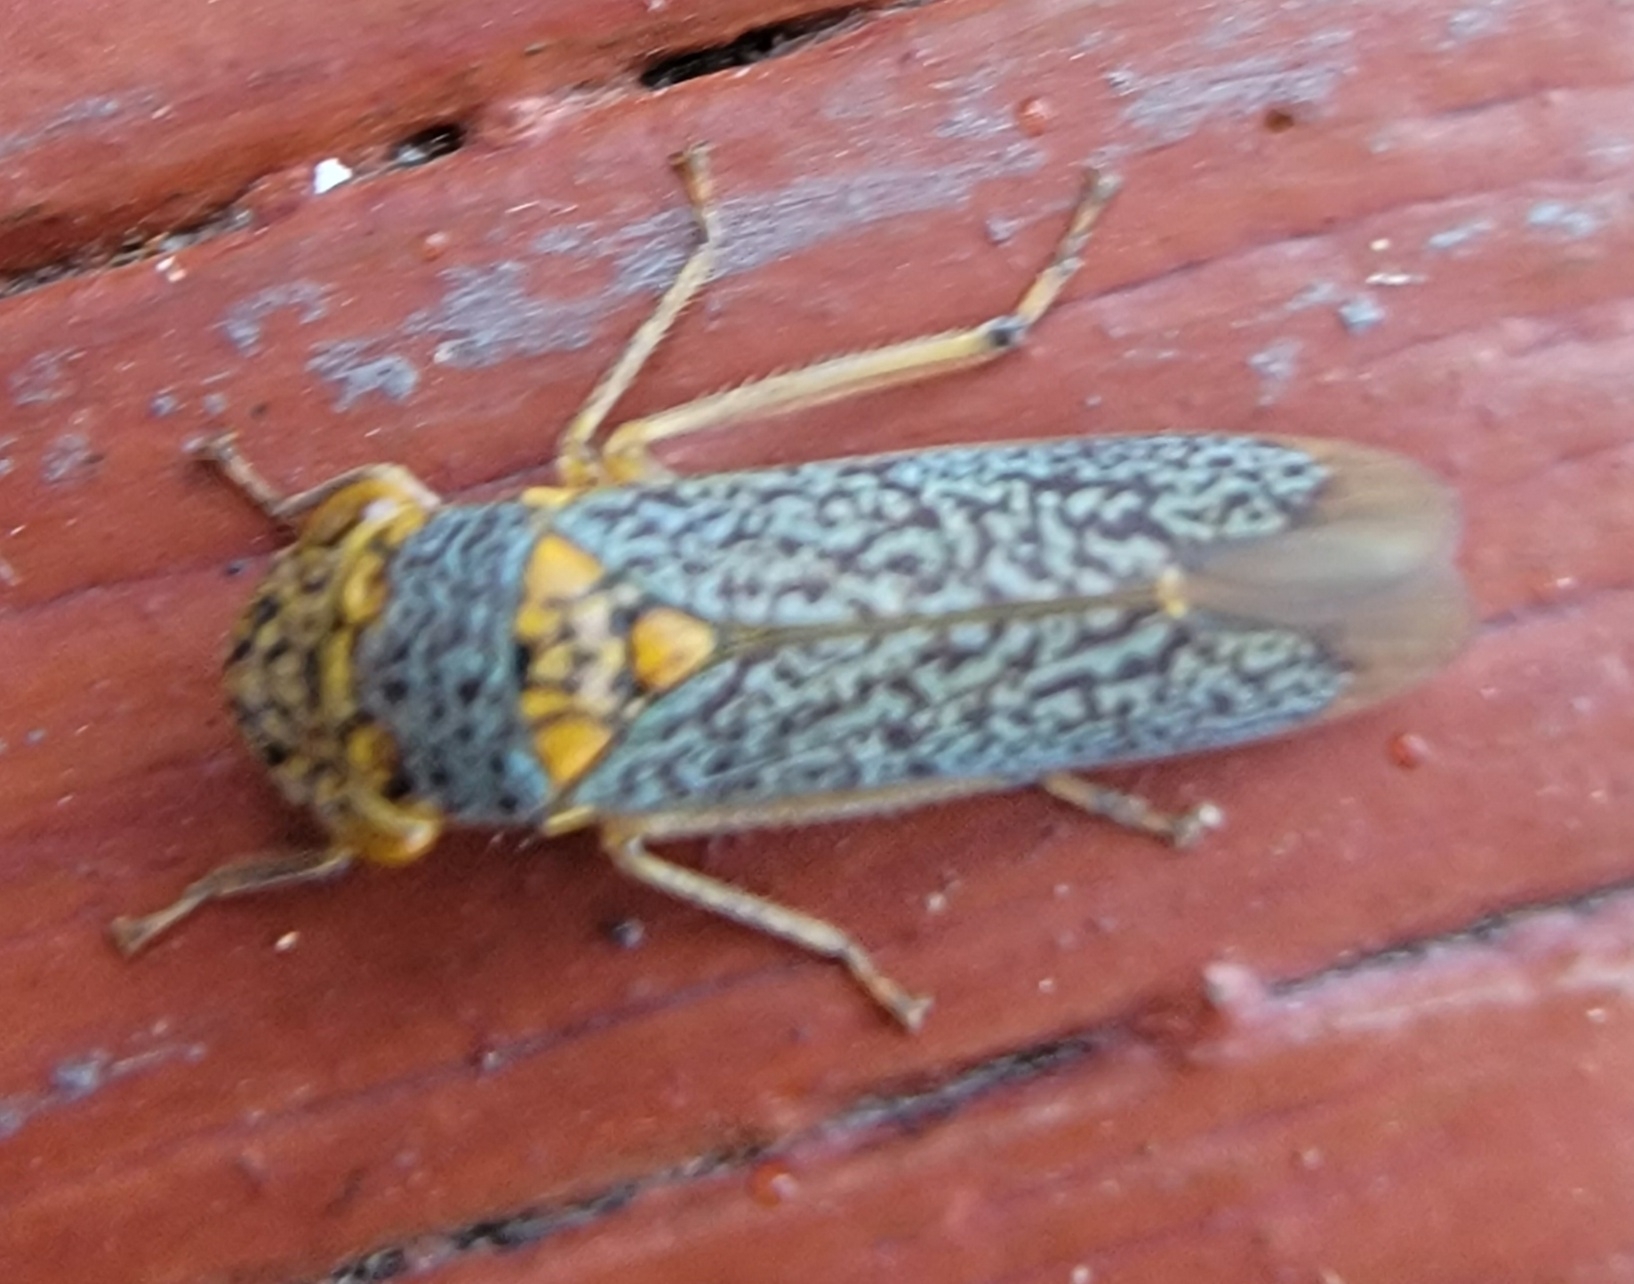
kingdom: Animalia
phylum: Arthropoda
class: Insecta
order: Hemiptera
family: Cicadellidae
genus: Oncometopia
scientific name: Oncometopia orbona
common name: Broad-headed sharpshooter
